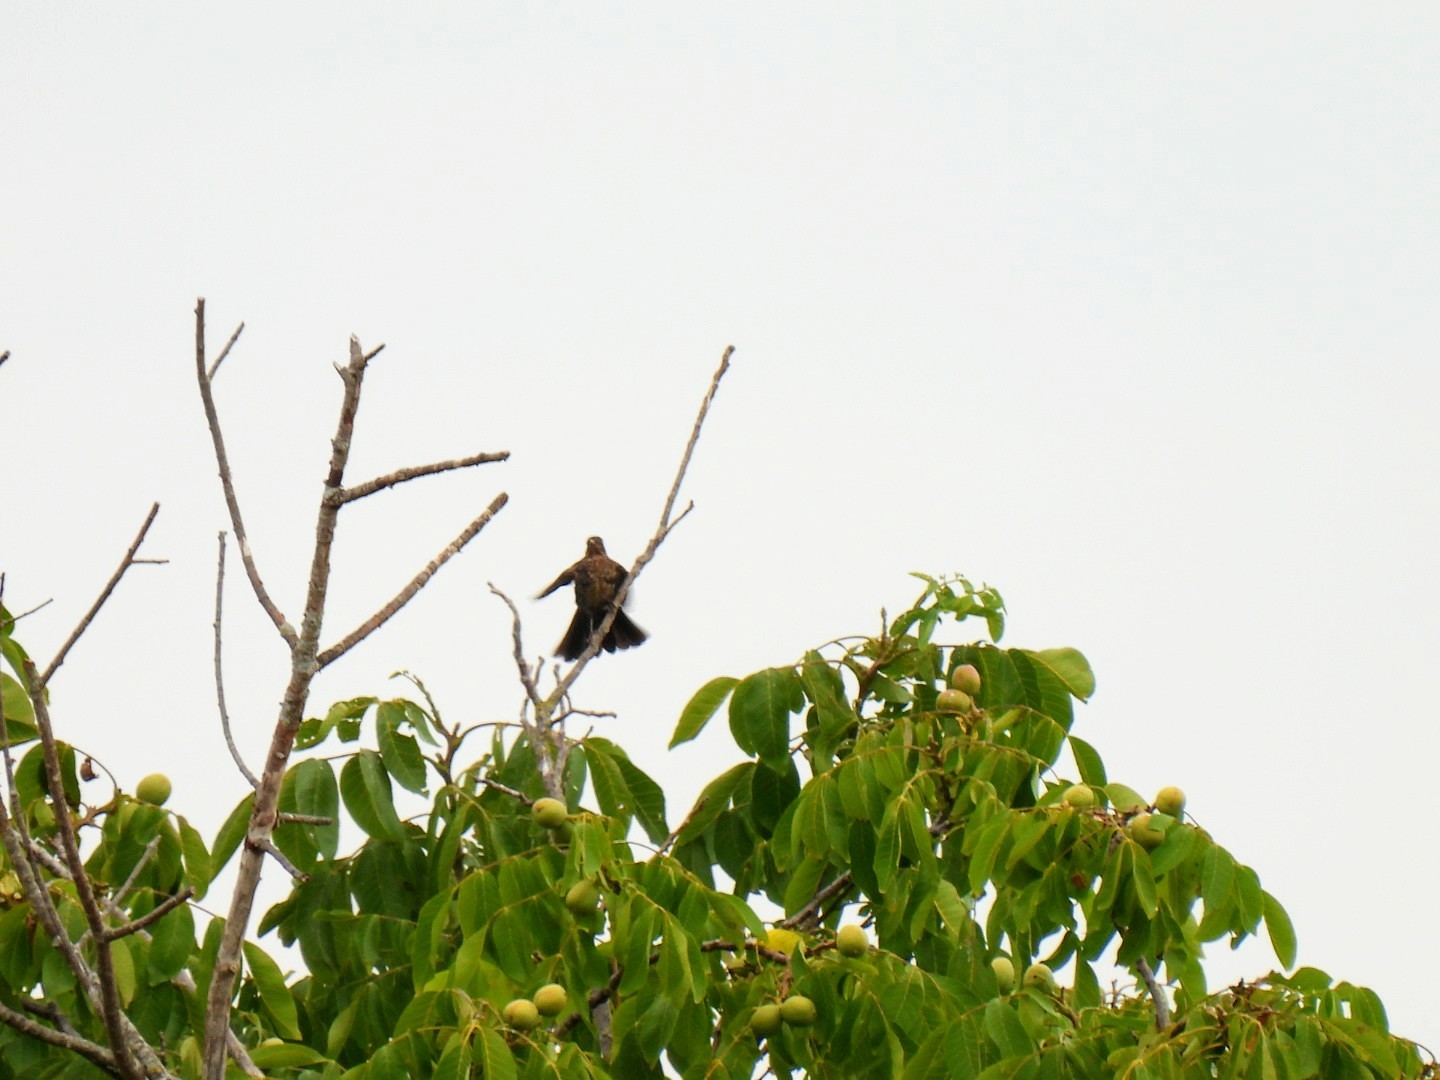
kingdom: Animalia
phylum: Chordata
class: Aves
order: Passeriformes
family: Turdidae
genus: Turdus
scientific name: Turdus merula
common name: Common blackbird
